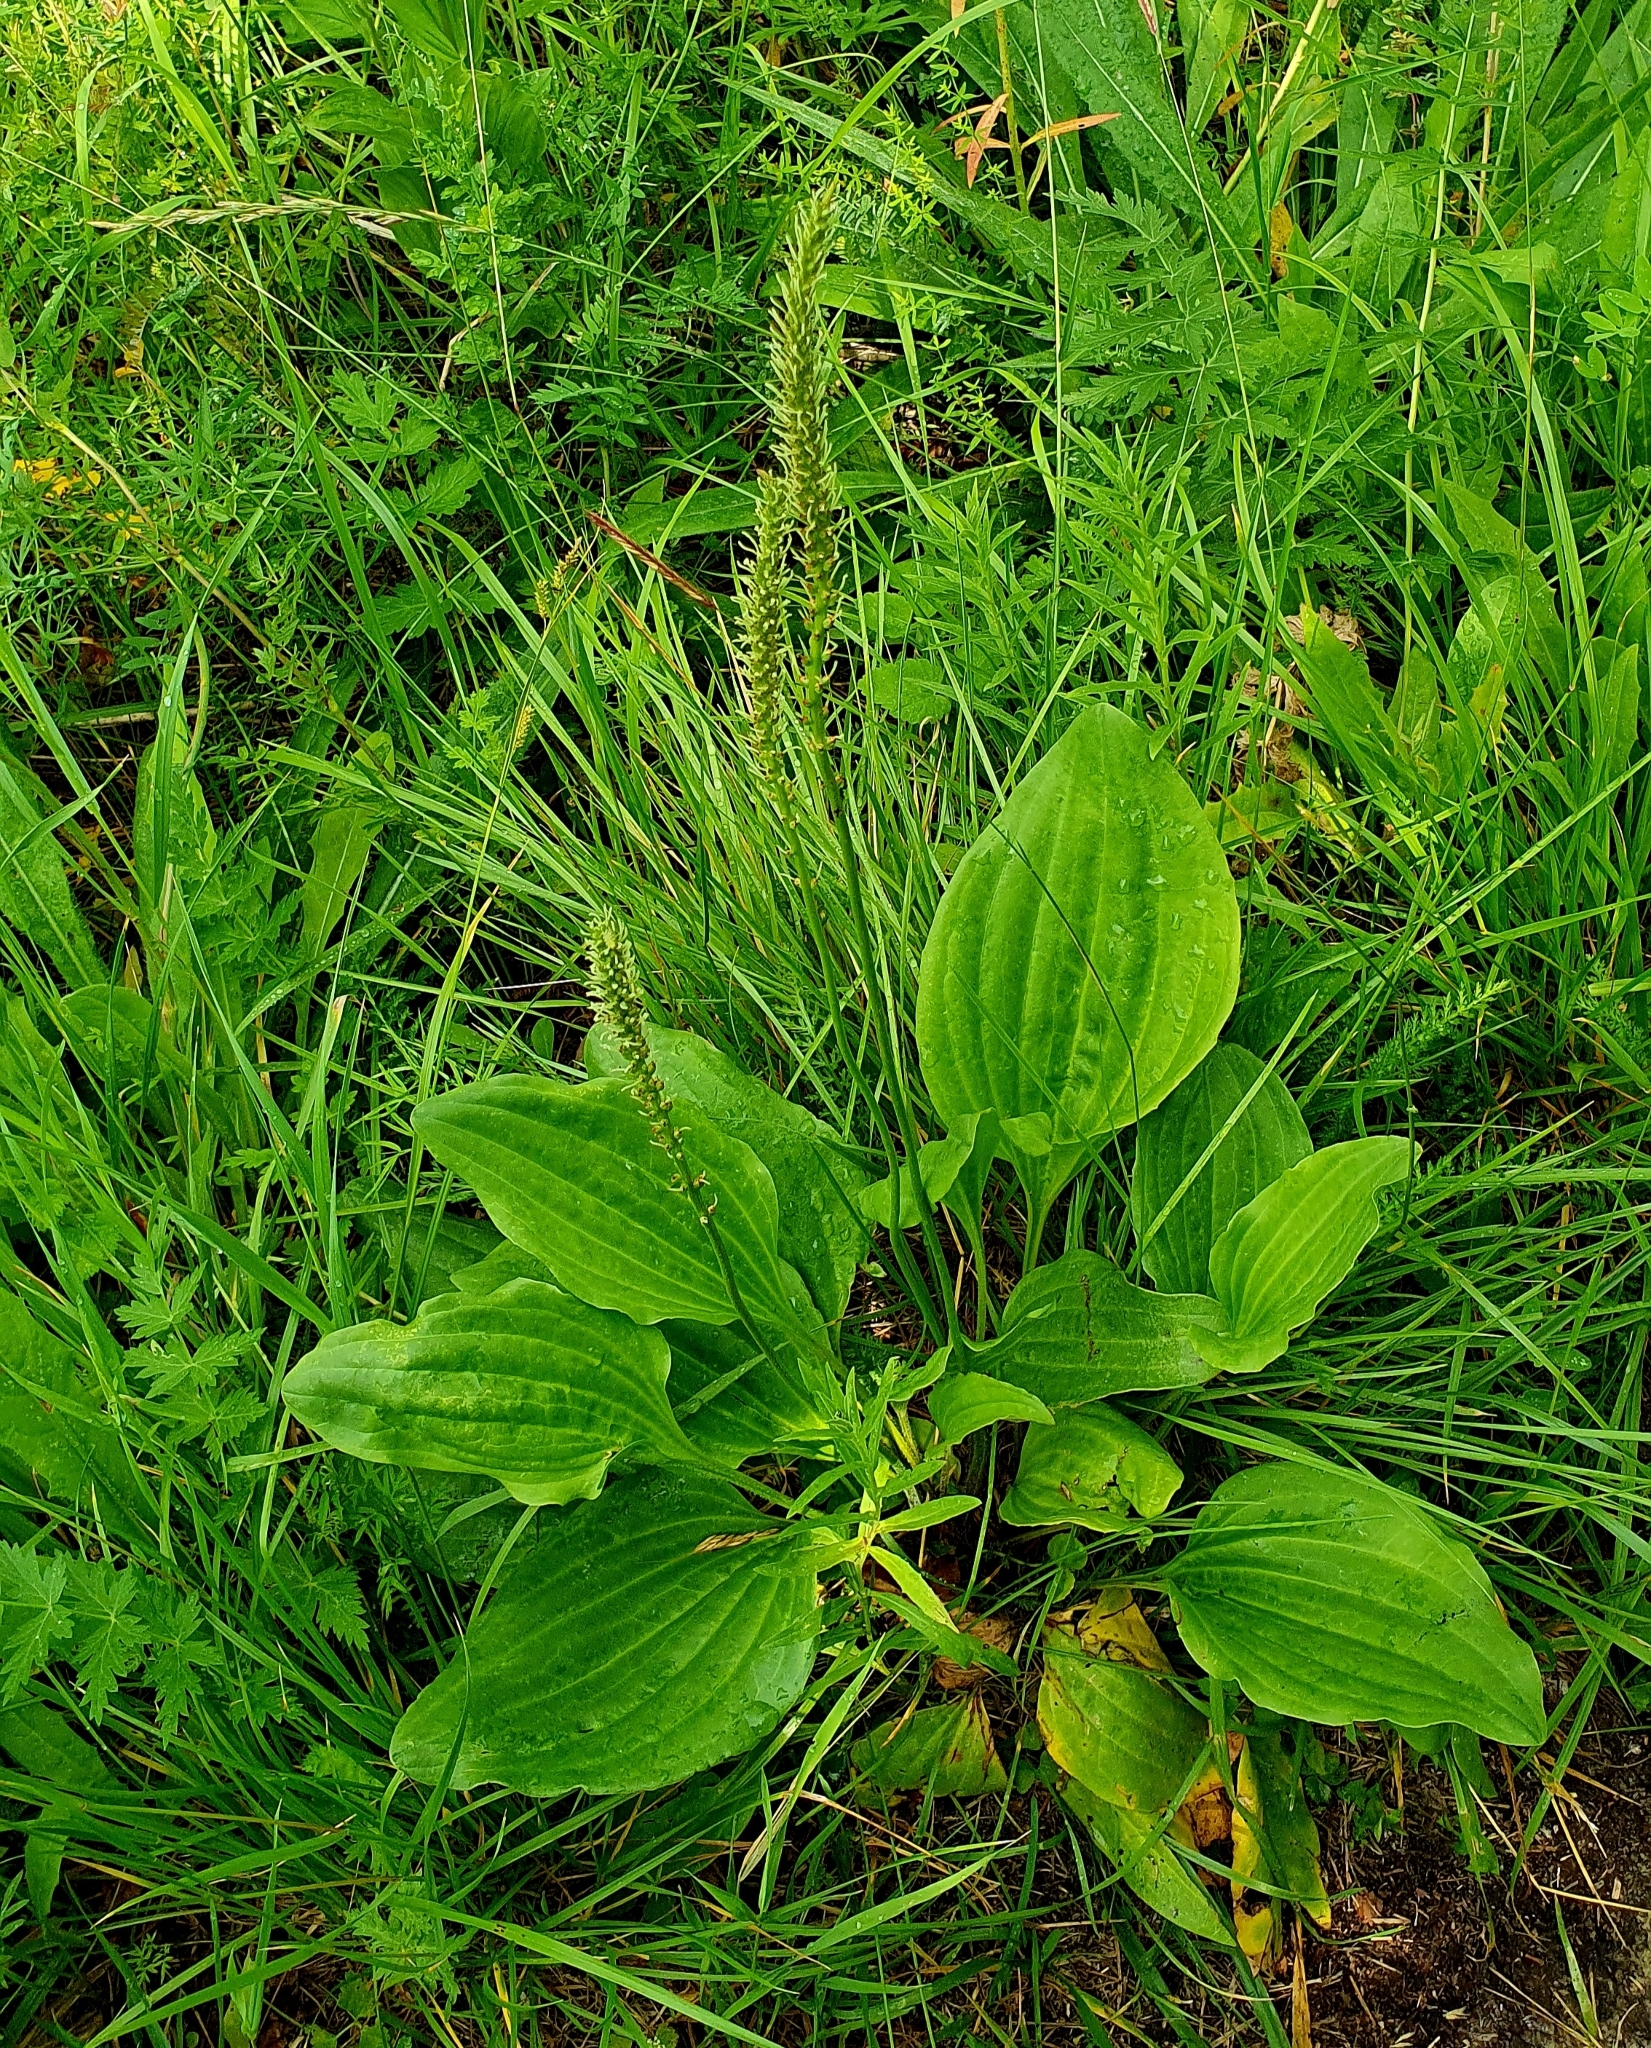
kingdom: Plantae
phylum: Tracheophyta
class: Magnoliopsida
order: Lamiales
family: Plantaginaceae
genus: Plantago
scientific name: Plantago cornuti
